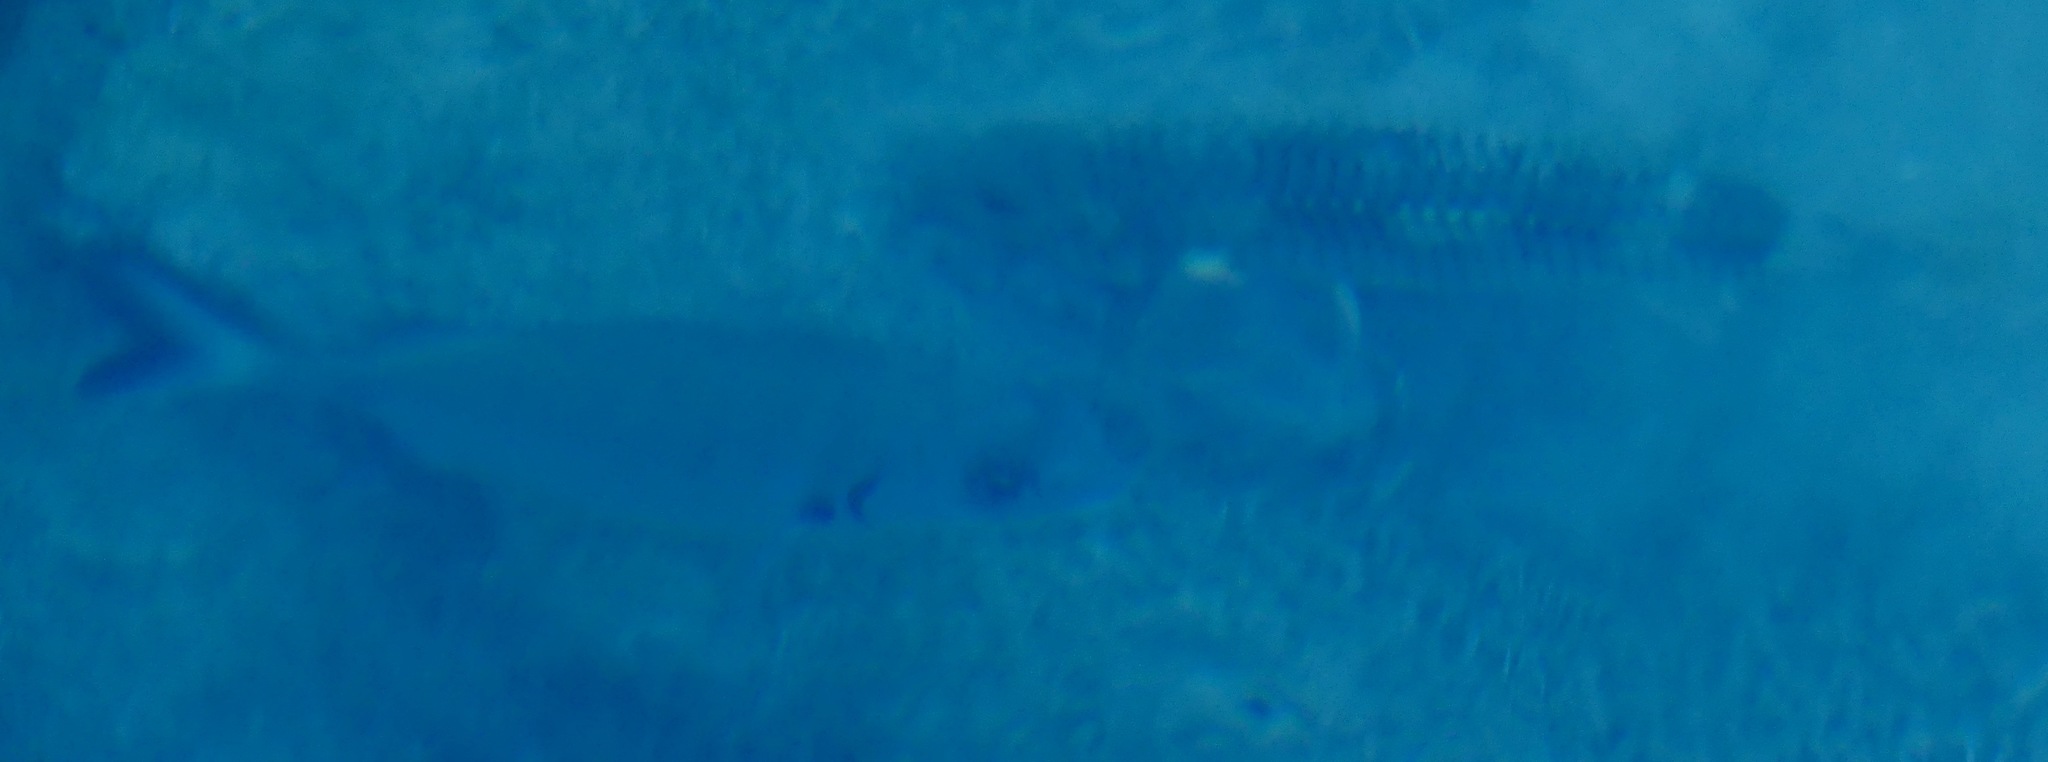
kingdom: Animalia
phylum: Chordata
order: Perciformes
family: Mullidae
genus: Mullus
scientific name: Mullus
